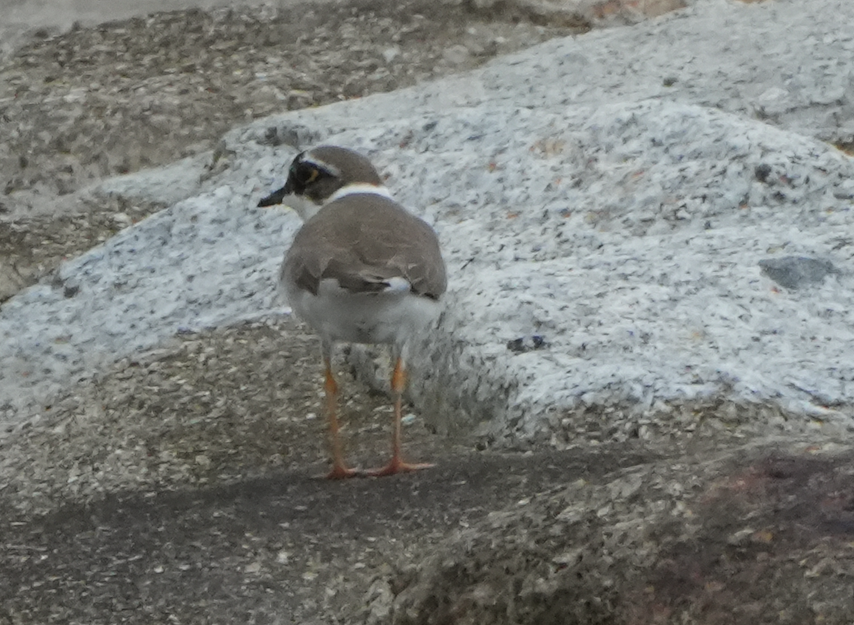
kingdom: Animalia
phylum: Chordata
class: Aves
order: Charadriiformes
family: Charadriidae
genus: Charadrius
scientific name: Charadrius dubius
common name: Little ringed plover
